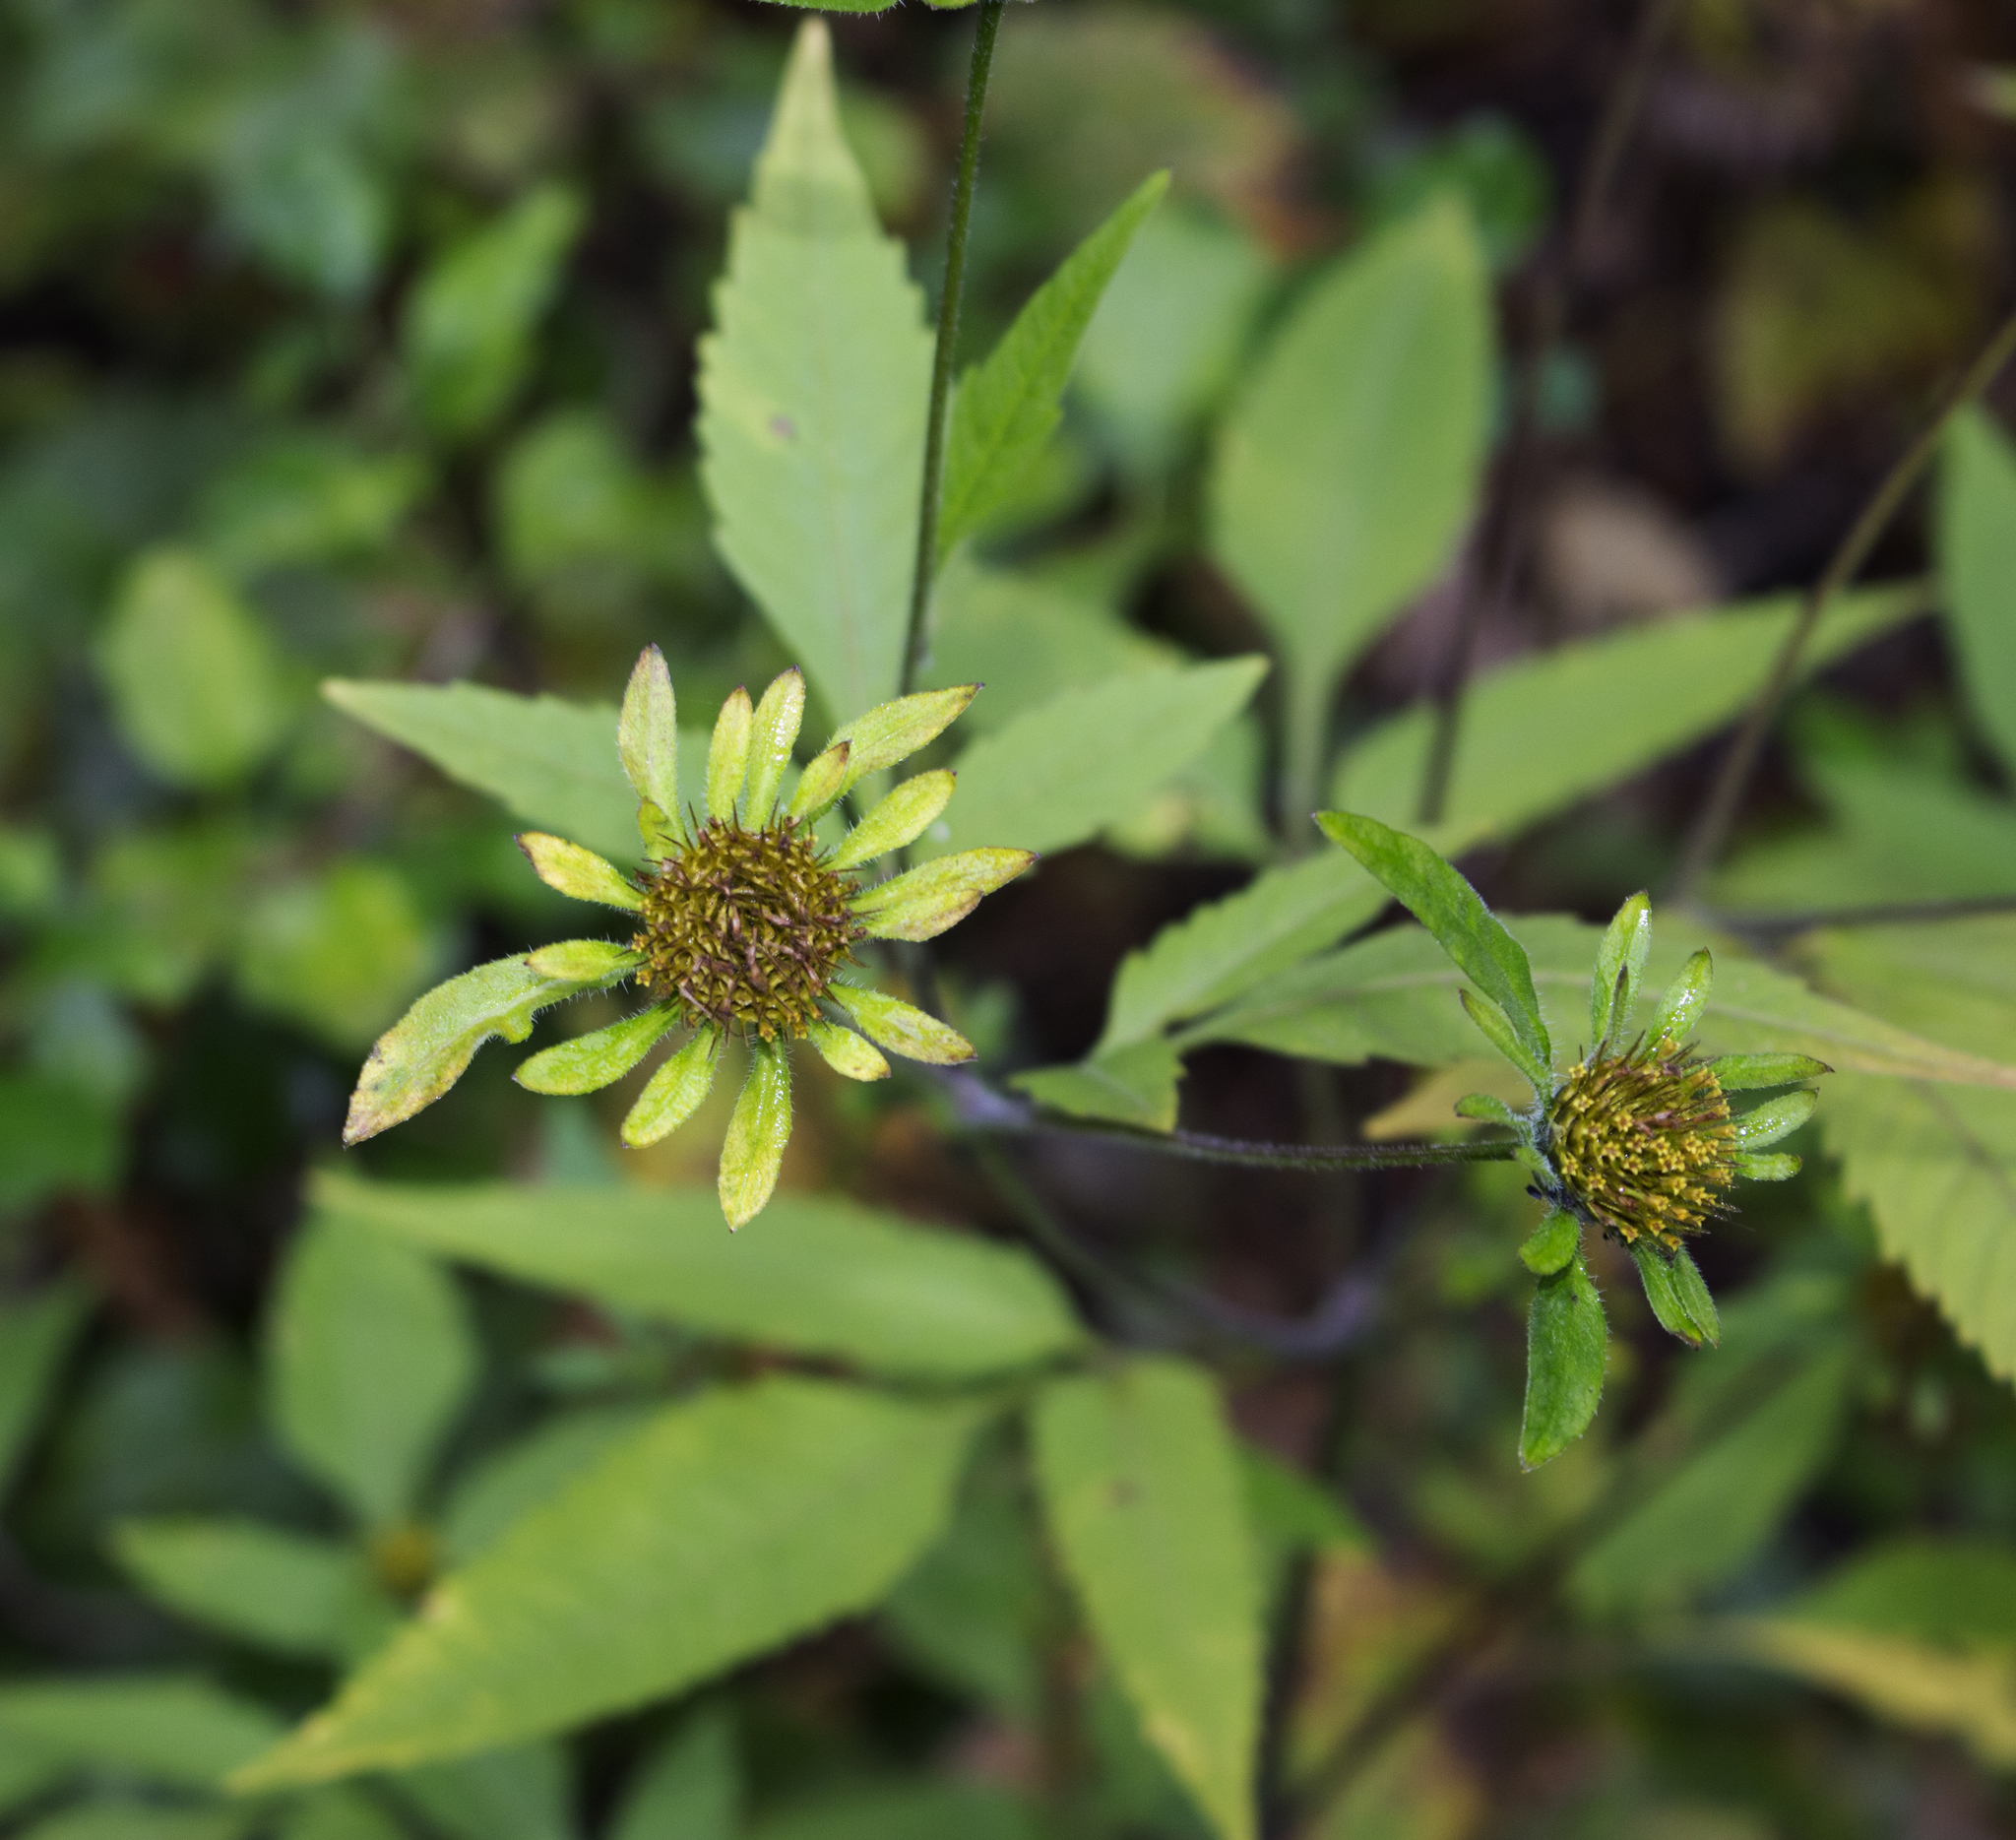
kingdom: Plantae
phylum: Tracheophyta
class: Magnoliopsida
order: Asterales
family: Asteraceae
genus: Bidens
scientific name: Bidens vulgata
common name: Tall beggarticks
